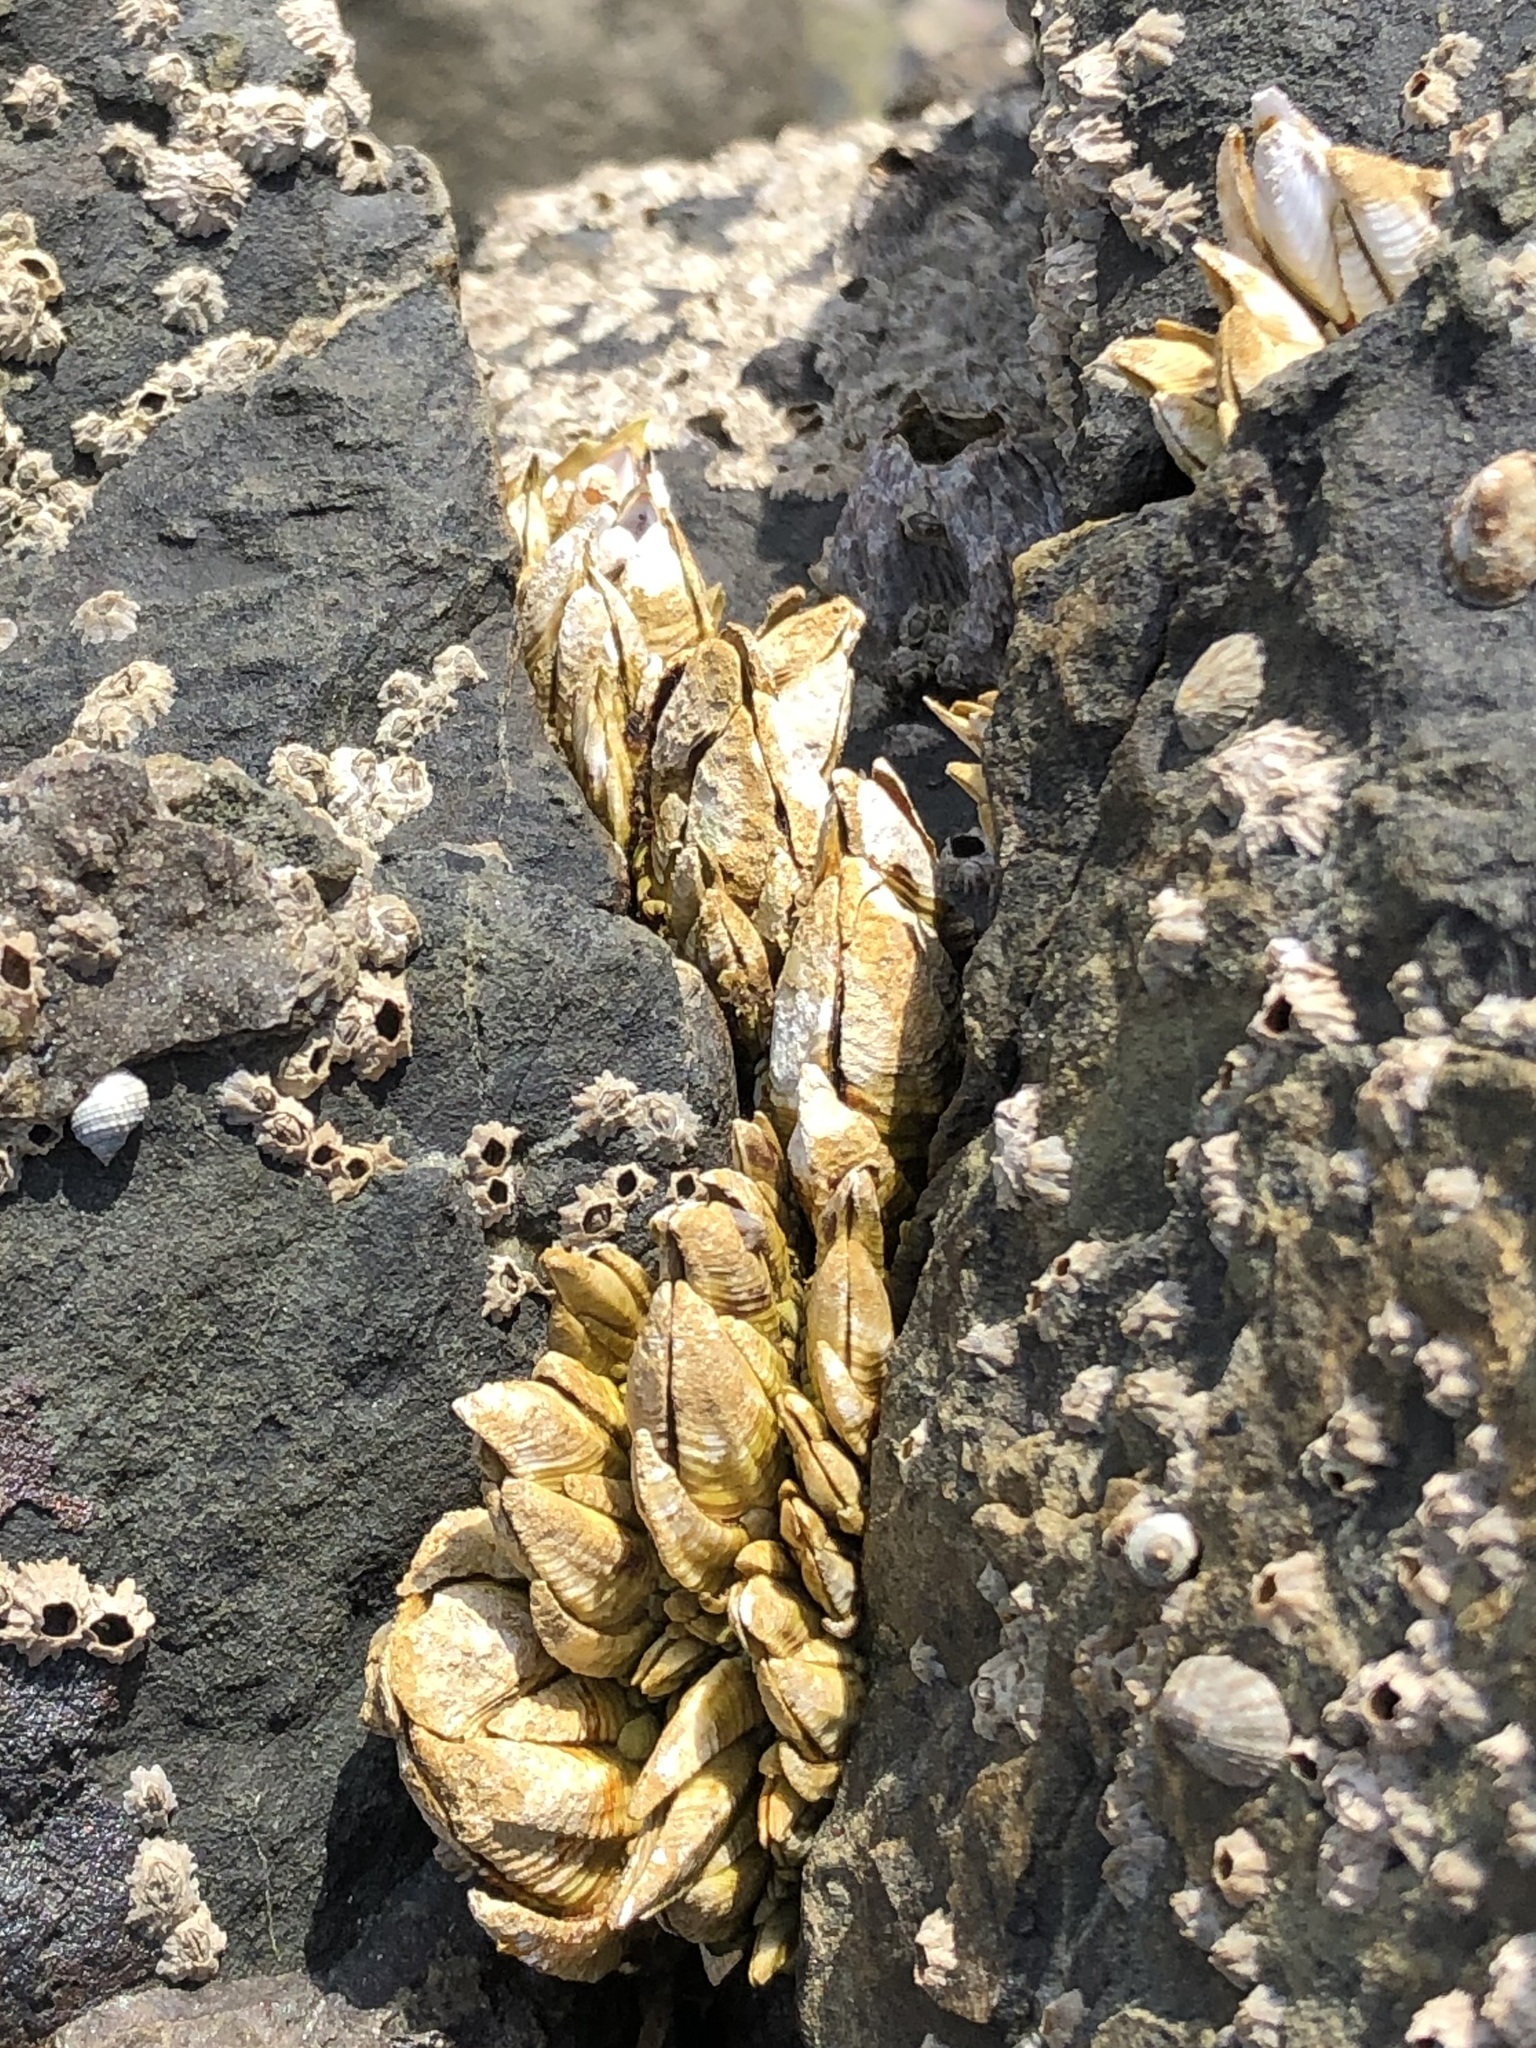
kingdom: Animalia
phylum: Arthropoda
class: Maxillopoda
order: Pedunculata
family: Pollicipedidae
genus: Capitulum
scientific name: Capitulum mitella
